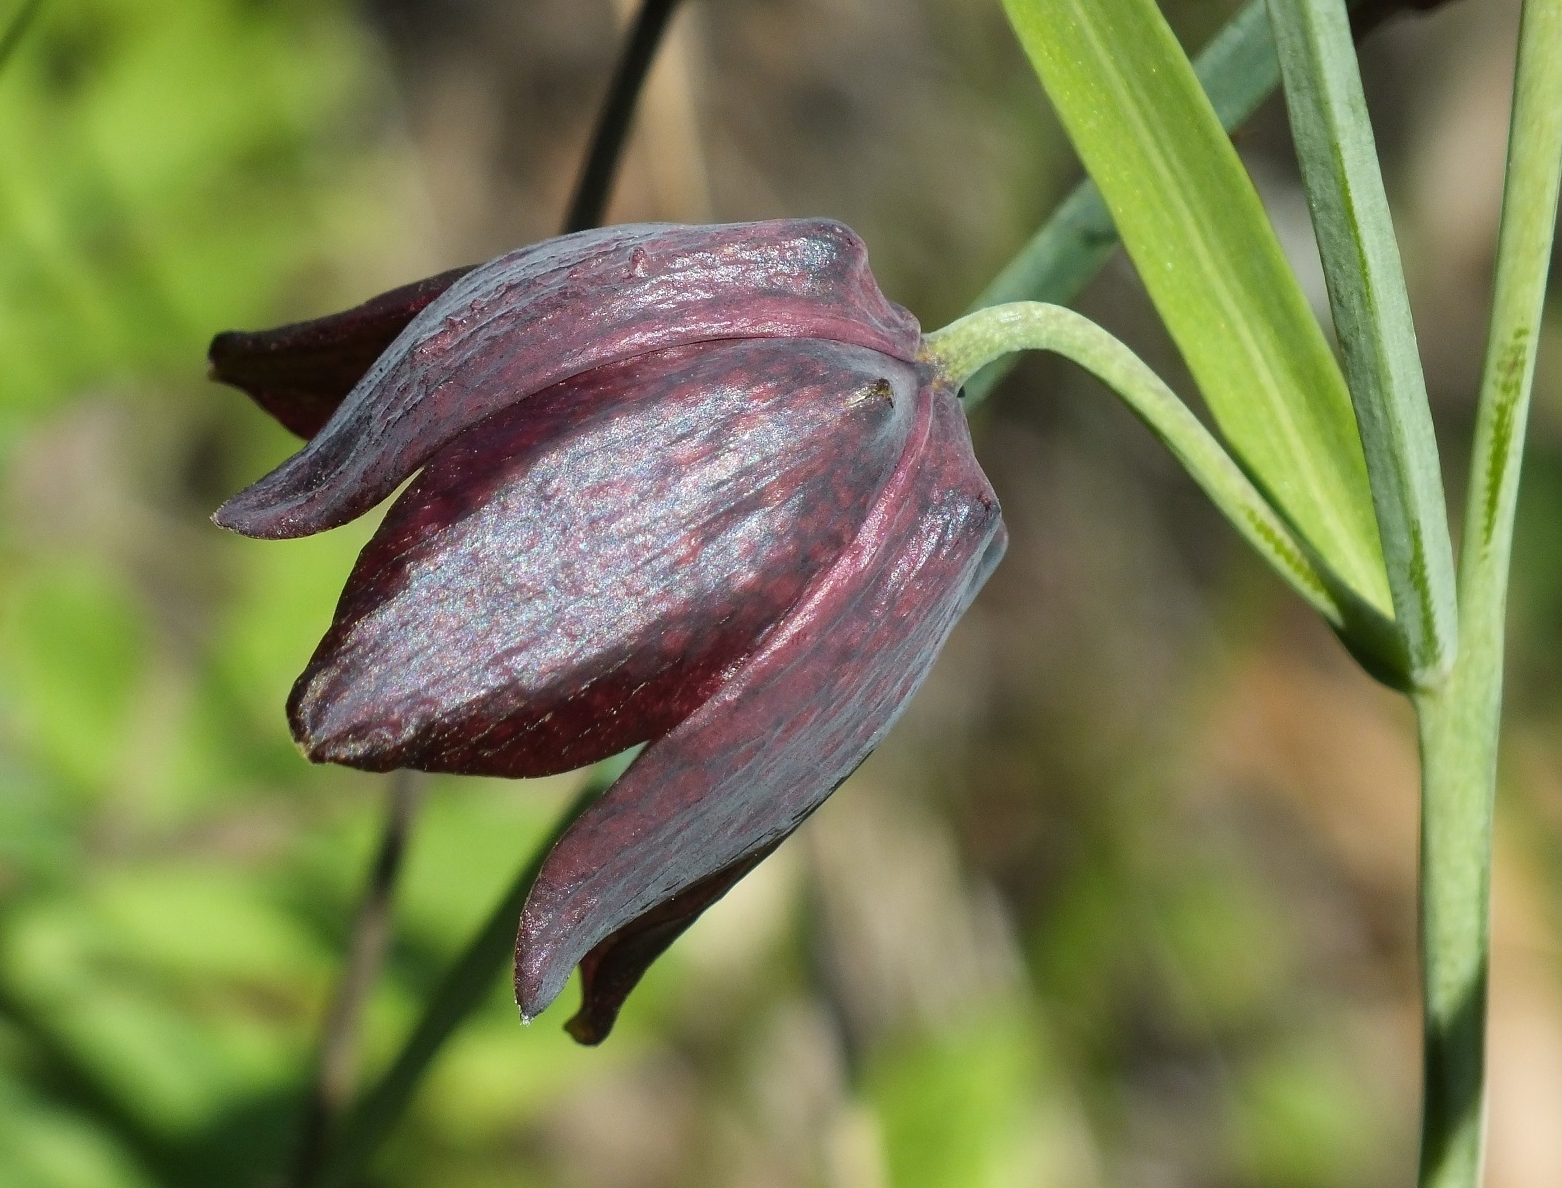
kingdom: Plantae
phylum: Tracheophyta
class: Liliopsida
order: Liliales
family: Liliaceae
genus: Fritillaria
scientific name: Fritillaria ruthenica
